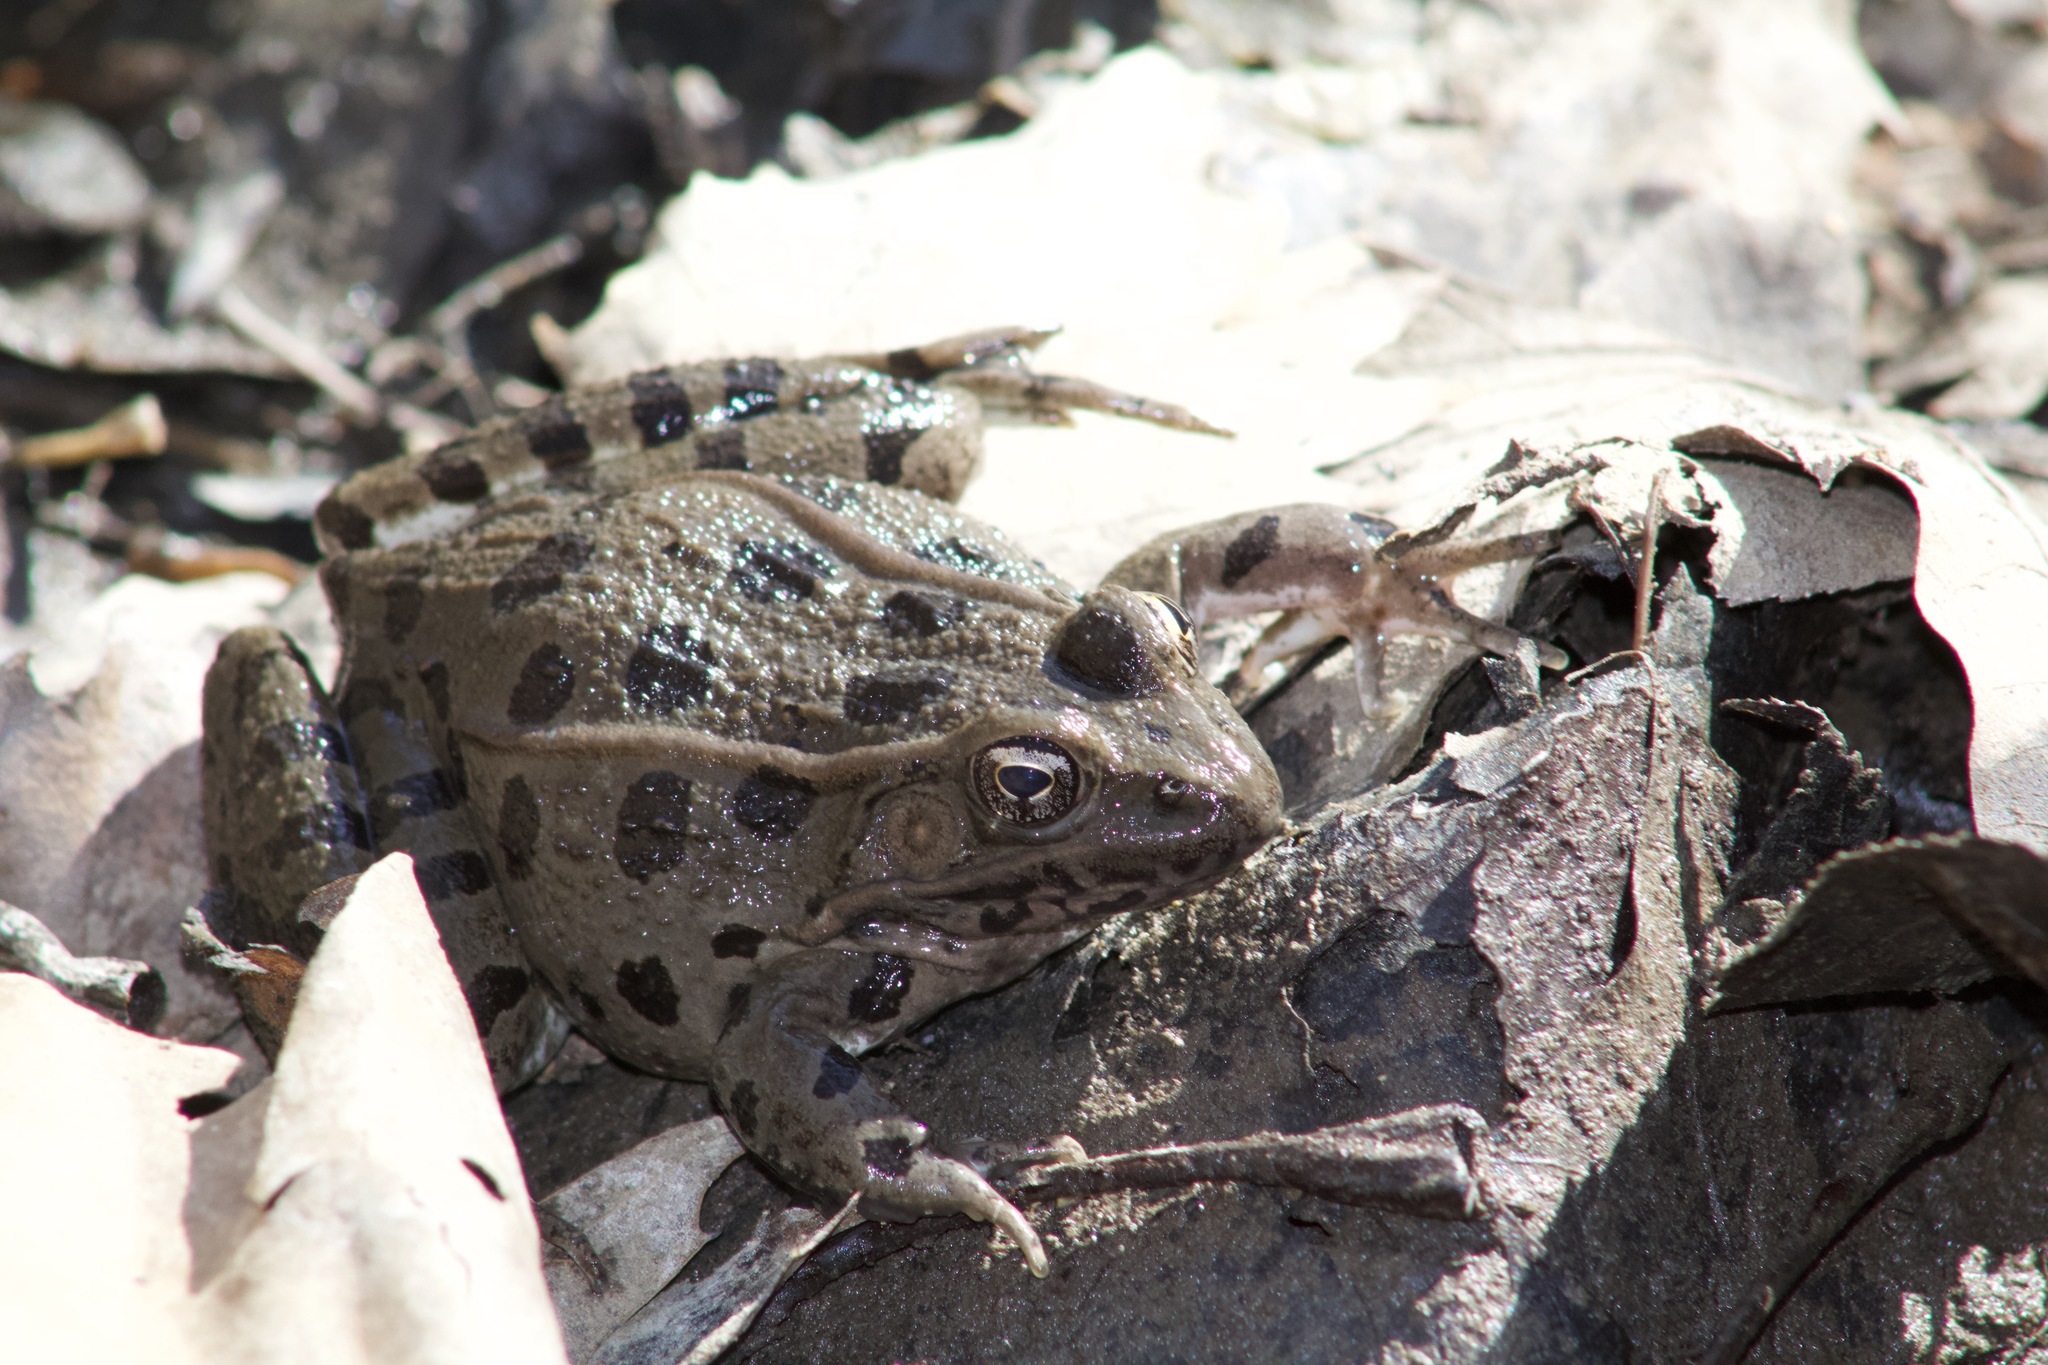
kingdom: Animalia
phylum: Chordata
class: Amphibia
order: Anura
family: Ranidae
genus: Lithobates
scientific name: Lithobates blairi
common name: Plains leopard frog
